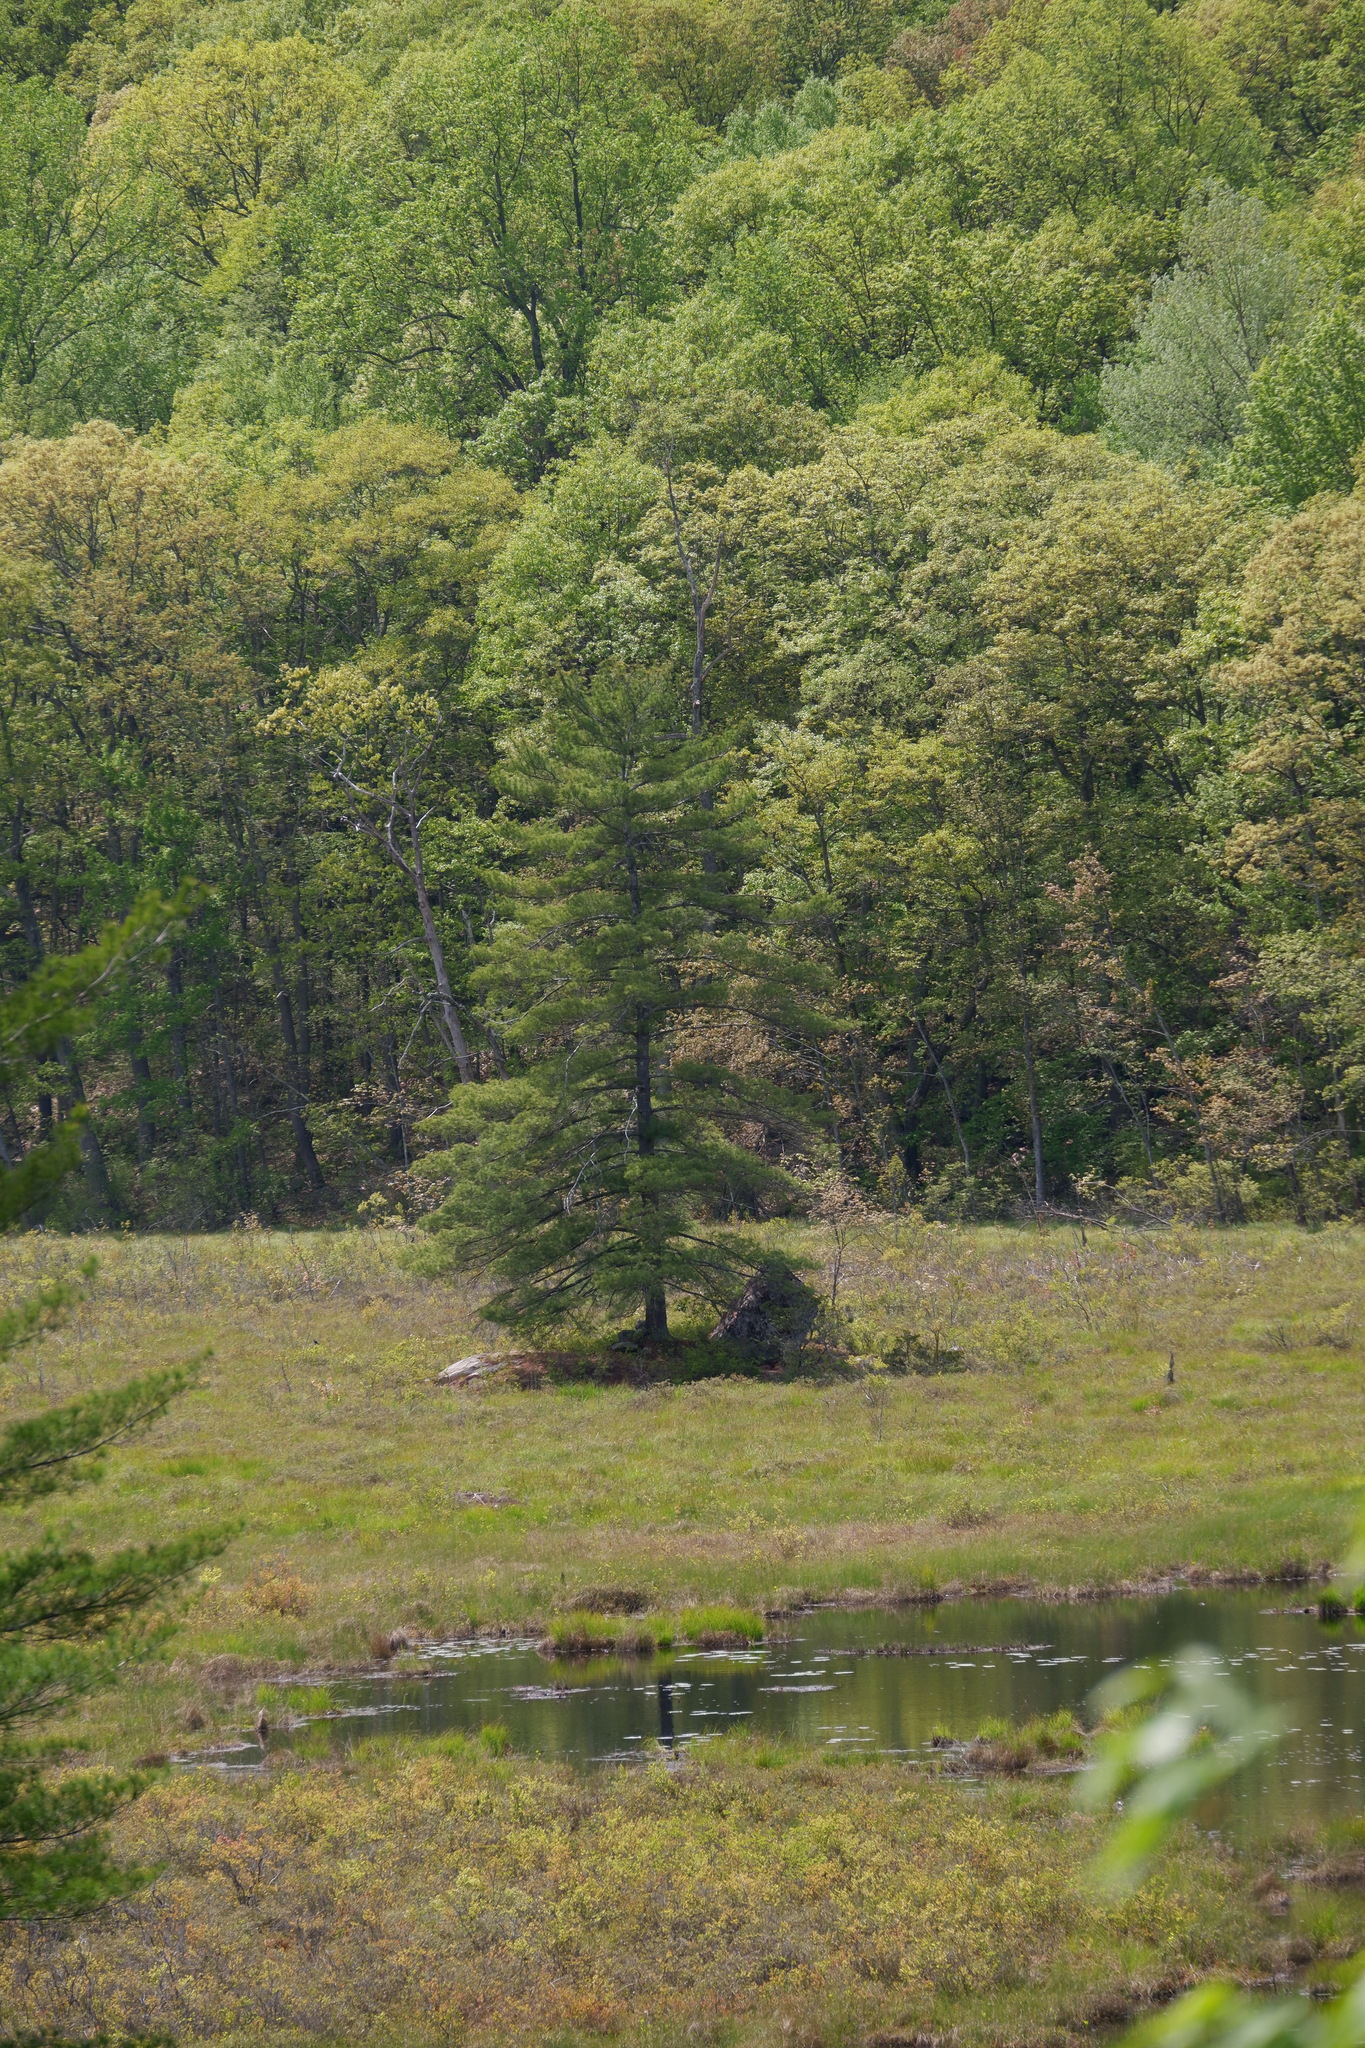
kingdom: Plantae
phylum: Tracheophyta
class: Pinopsida
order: Pinales
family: Pinaceae
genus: Pinus
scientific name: Pinus strobus
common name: Weymouth pine
